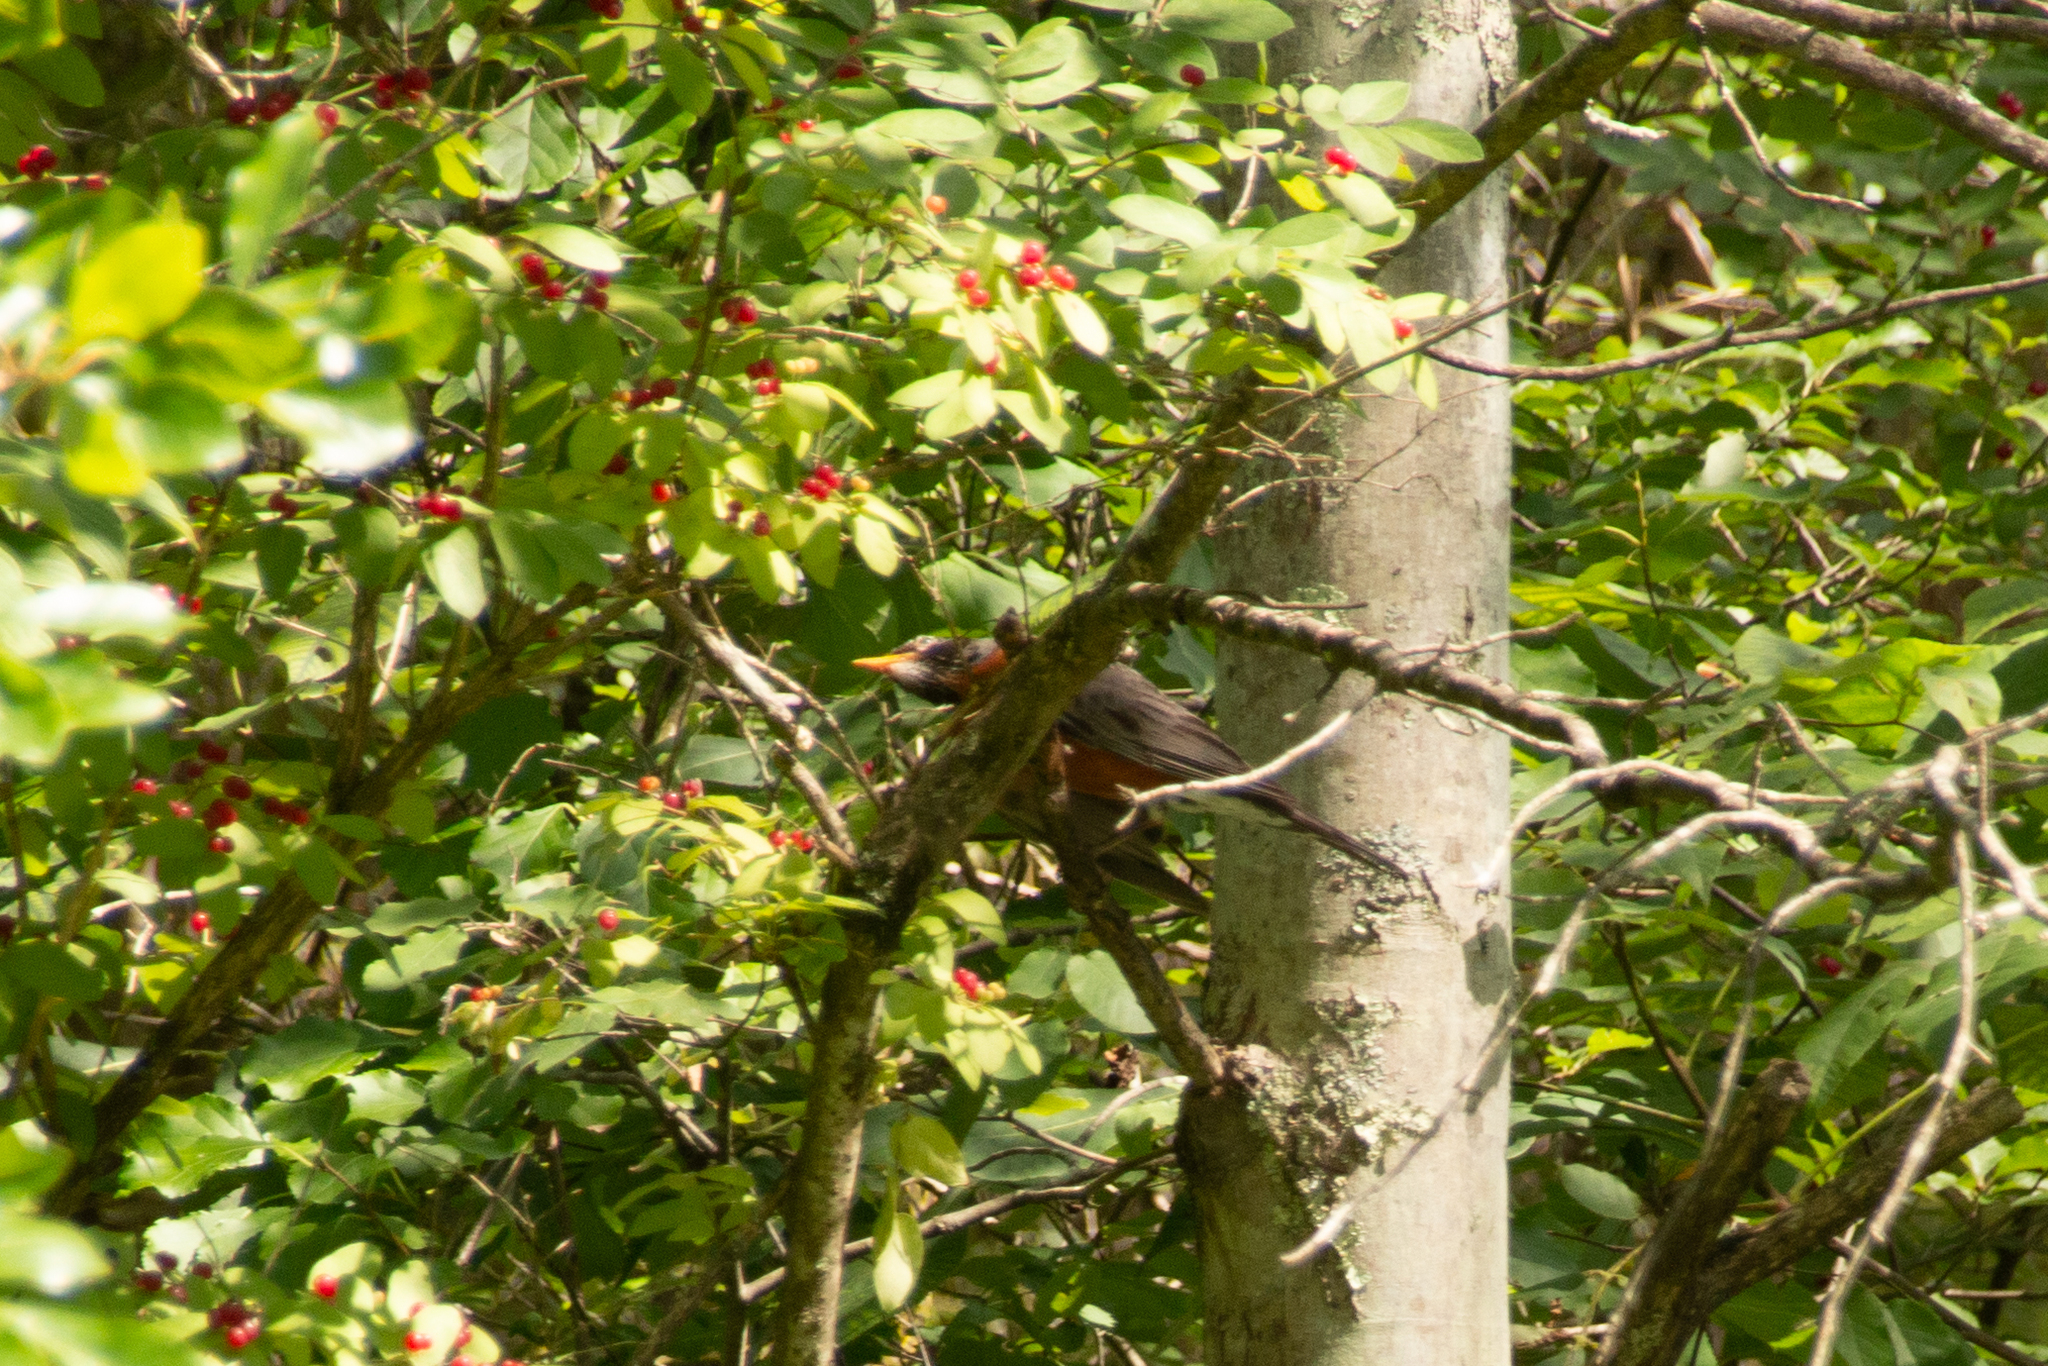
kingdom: Animalia
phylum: Chordata
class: Aves
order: Passeriformes
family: Turdidae
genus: Turdus
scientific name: Turdus migratorius
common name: American robin
